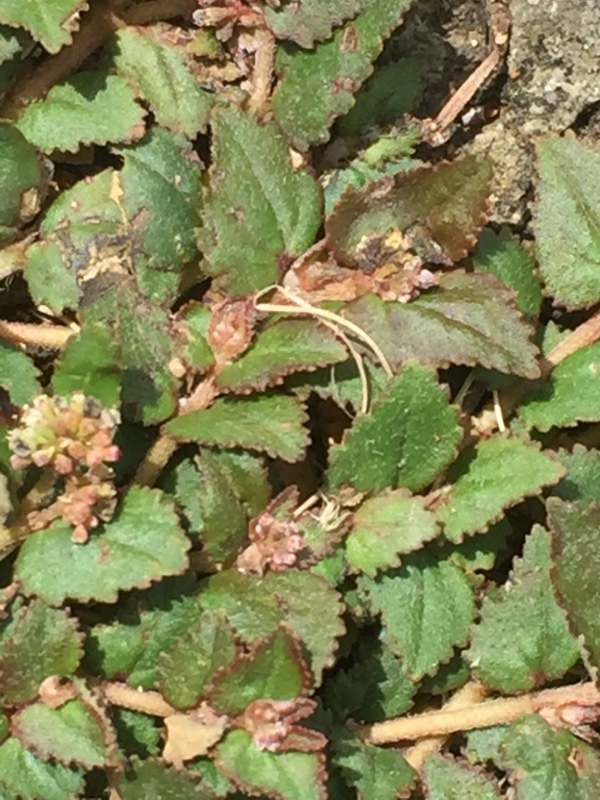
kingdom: Plantae
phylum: Tracheophyta
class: Magnoliopsida
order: Malpighiales
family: Euphorbiaceae
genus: Euphorbia
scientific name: Euphorbia ophthalmica
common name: Florida hammock sandmat
